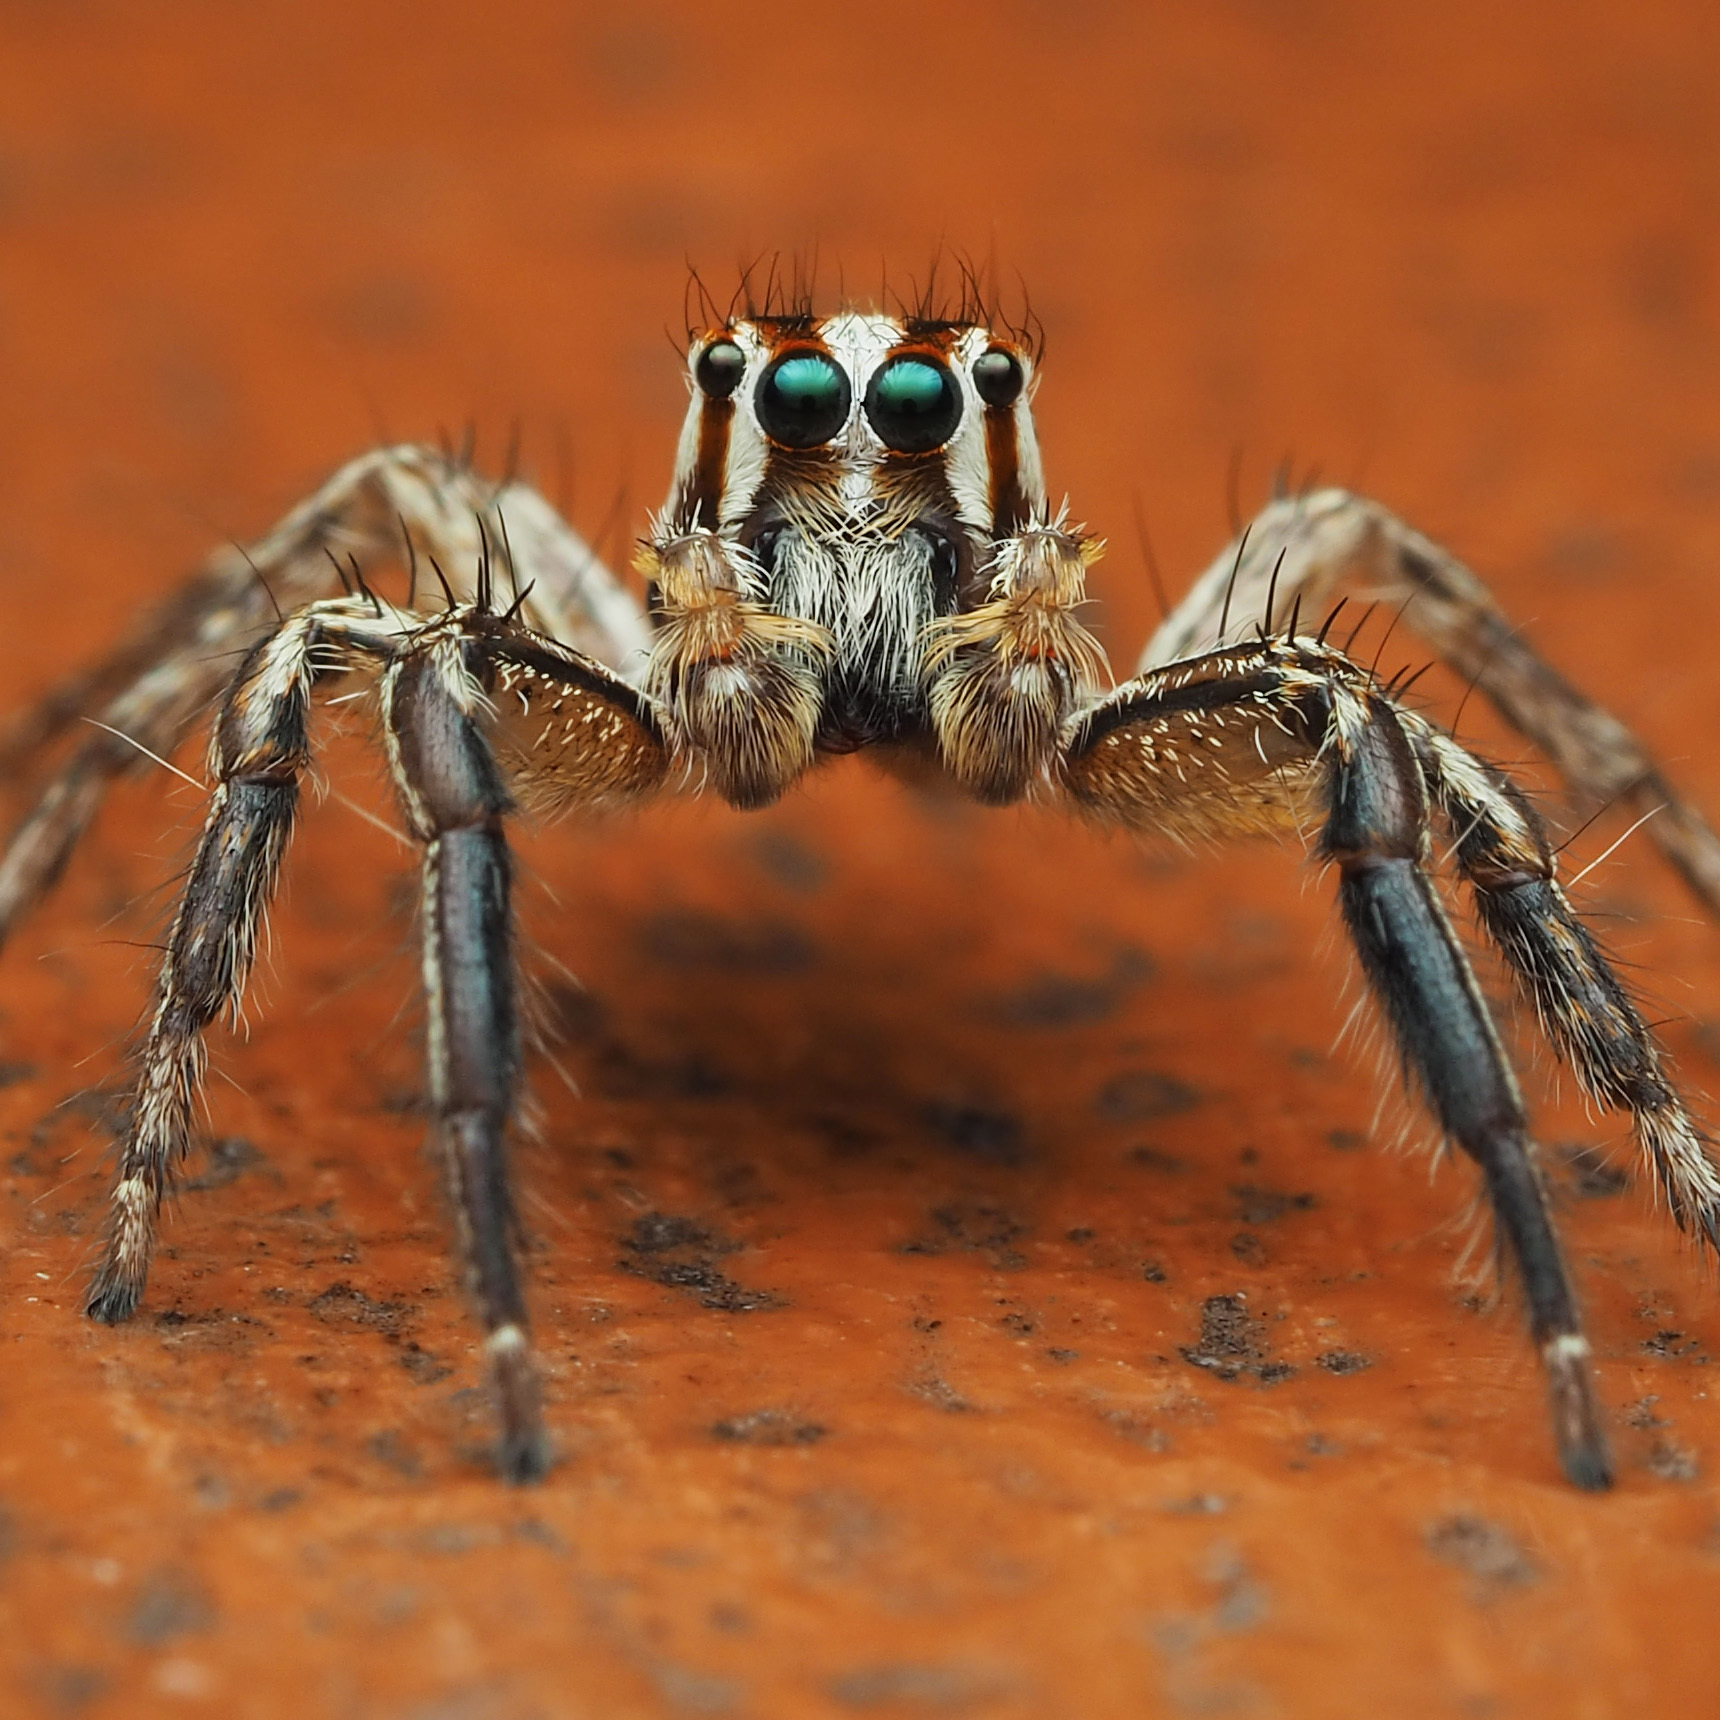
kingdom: Animalia
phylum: Arthropoda
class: Arachnida
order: Araneae
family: Salticidae
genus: Plexippus
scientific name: Plexippus paykulli
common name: Pantropical jumper
